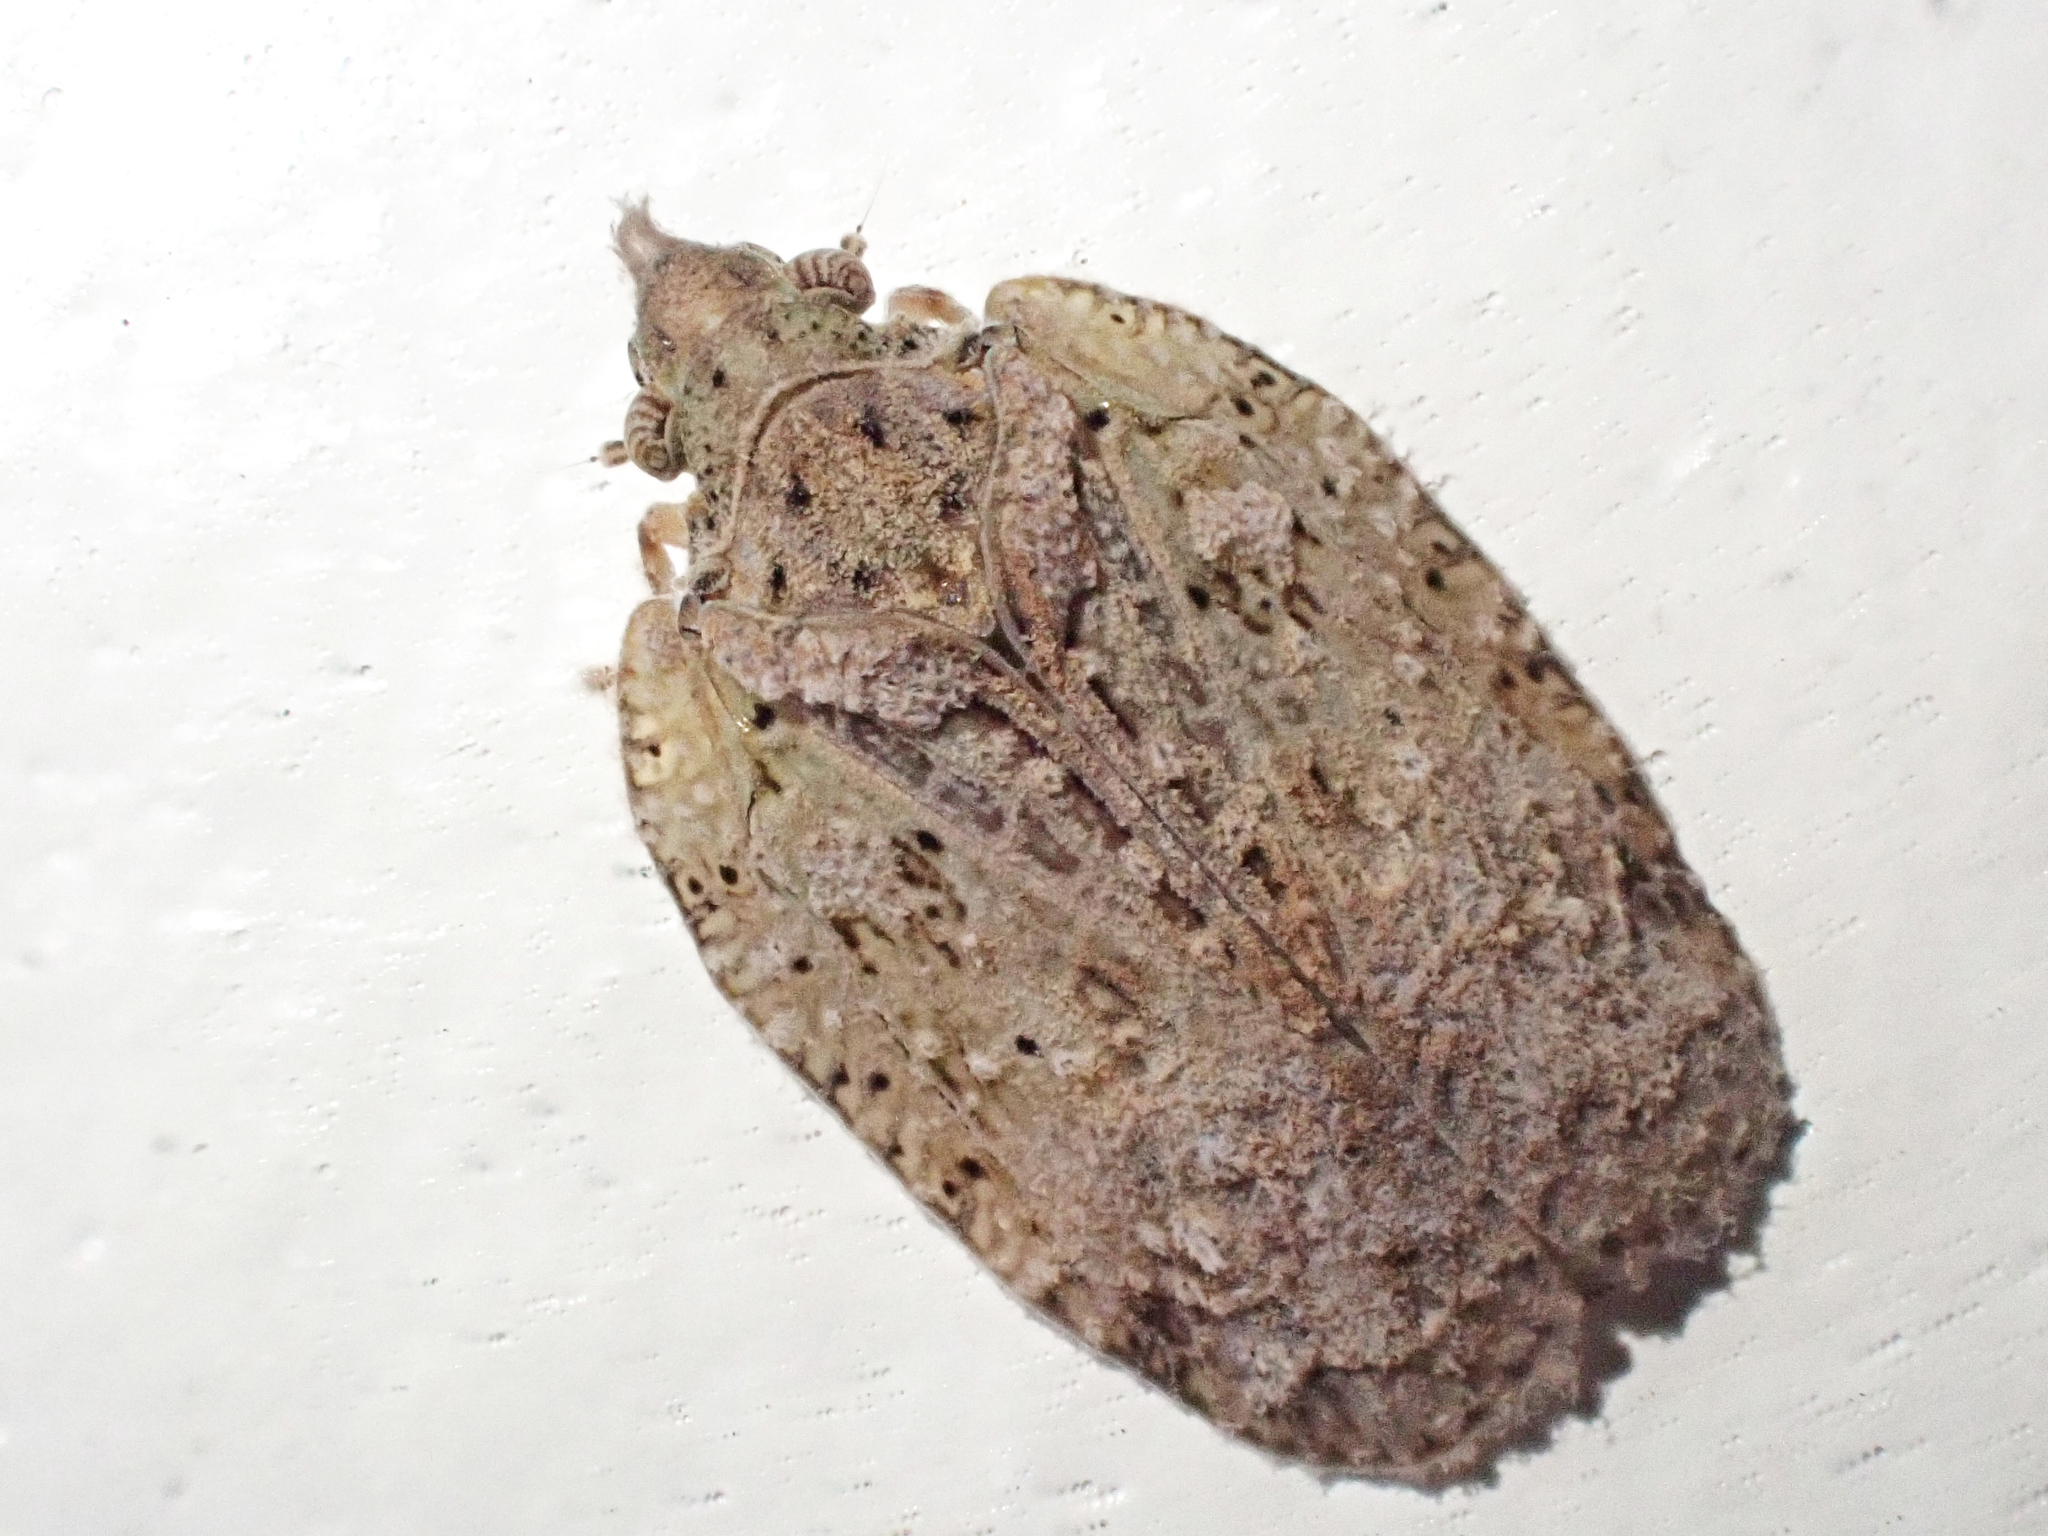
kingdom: Animalia
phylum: Arthropoda
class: Insecta
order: Hemiptera
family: Flatidae
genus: Flatoidinus
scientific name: Flatoidinus punctatus
